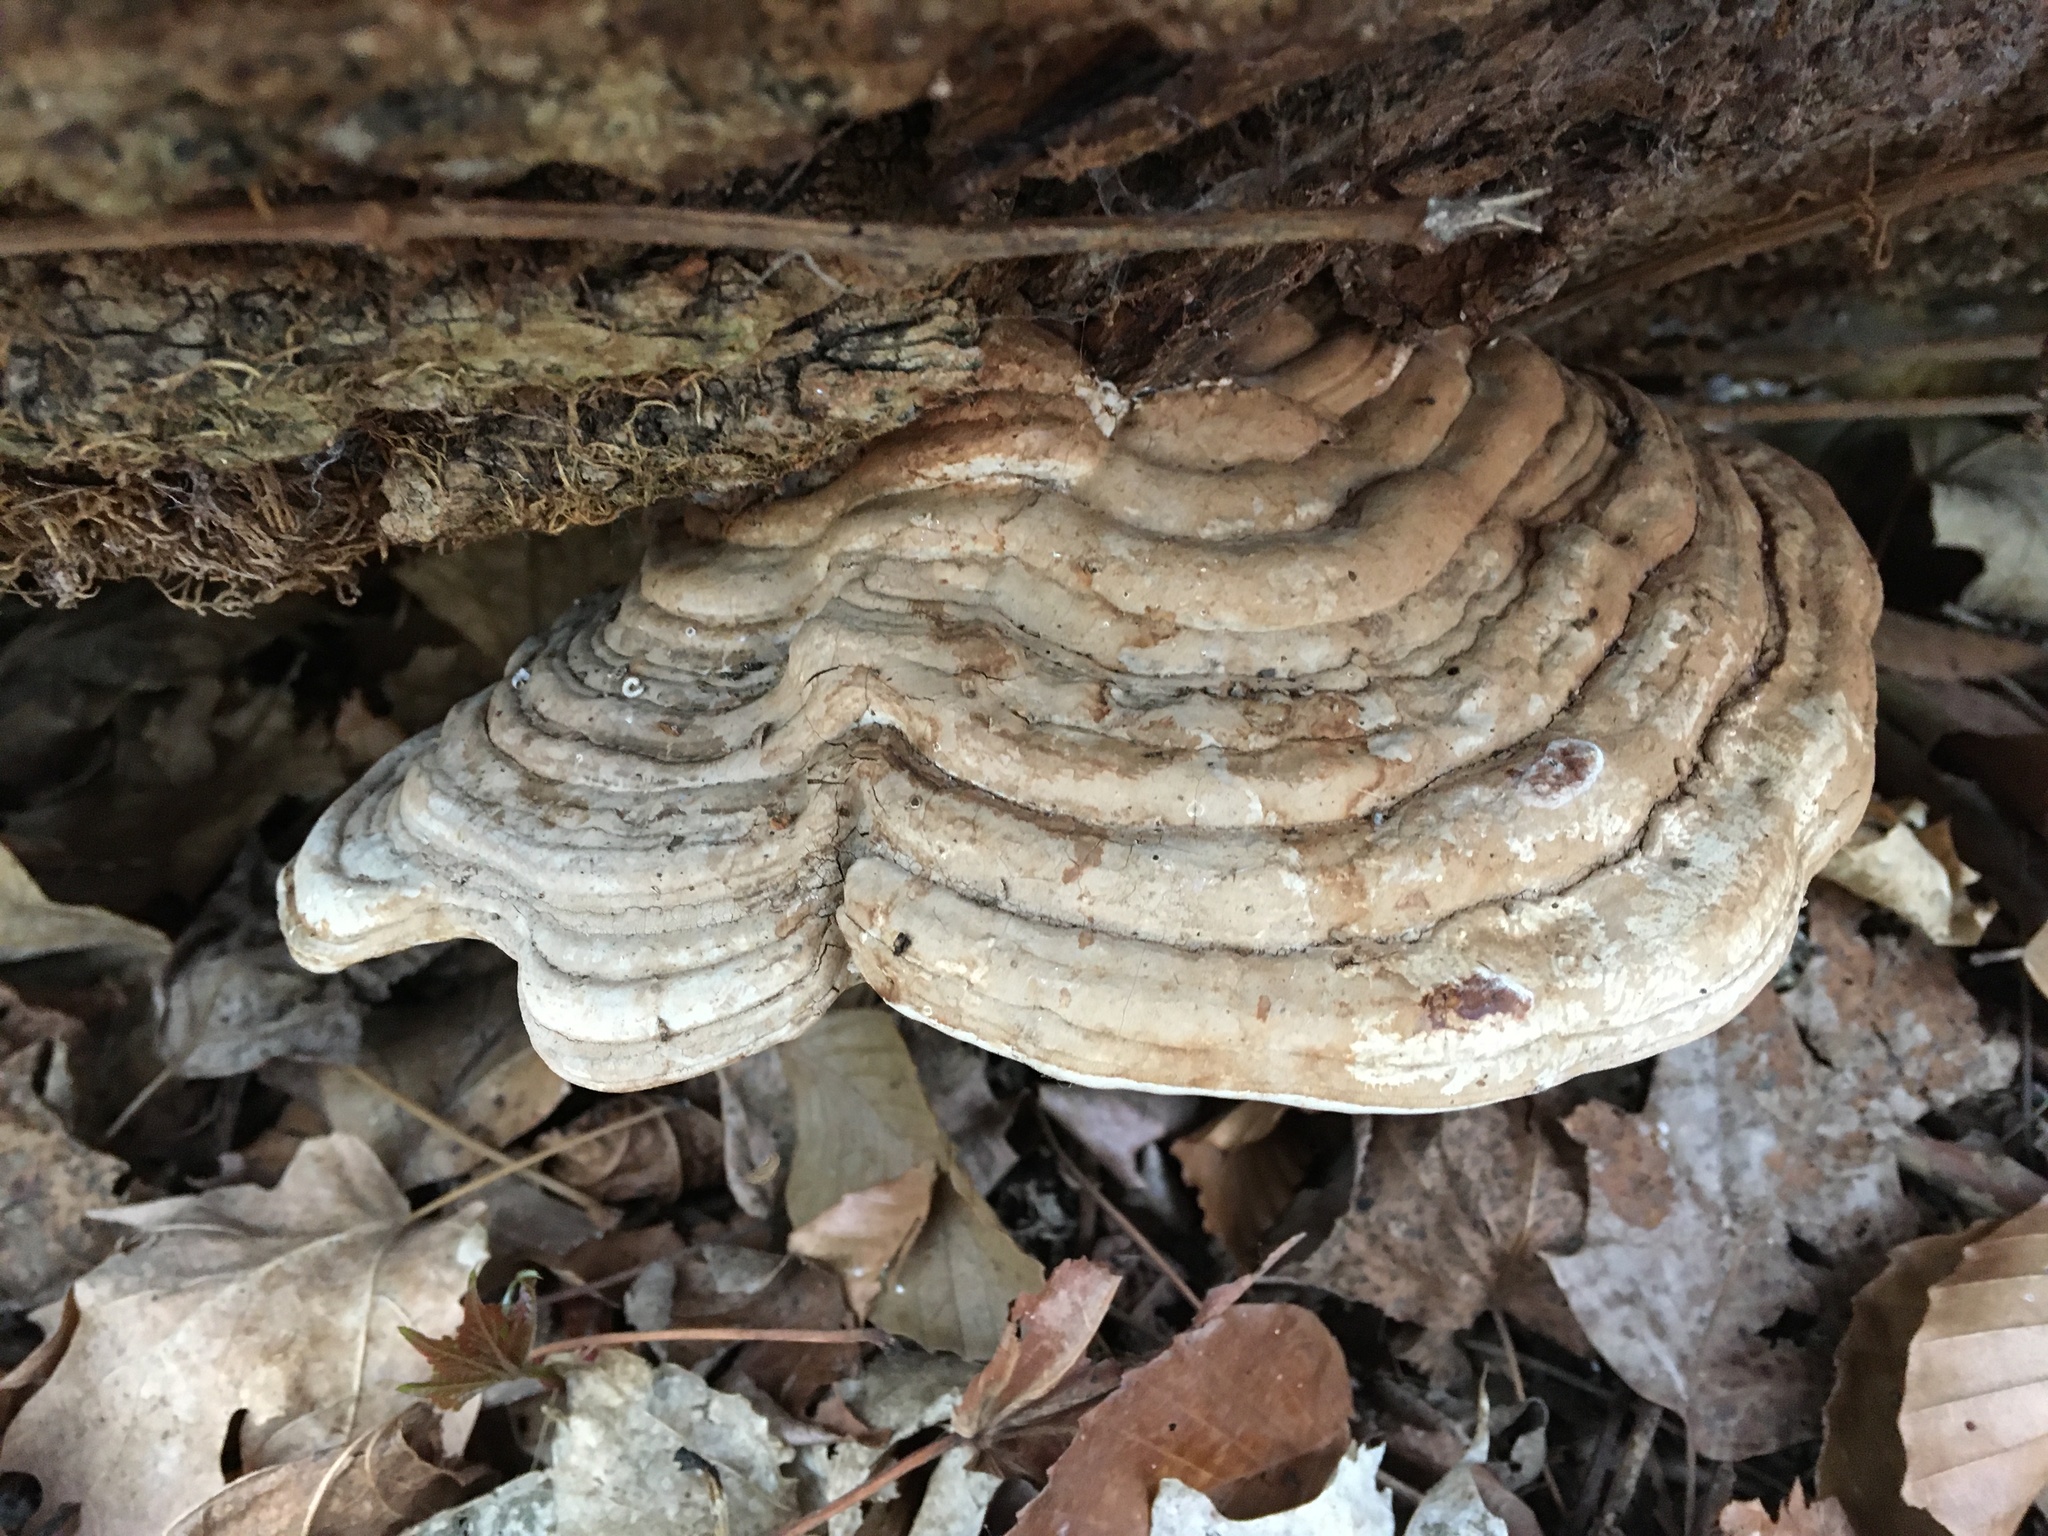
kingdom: Fungi
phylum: Basidiomycota
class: Agaricomycetes
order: Polyporales
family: Polyporaceae
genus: Ganoderma
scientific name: Ganoderma applanatum
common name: Artist's bracket
